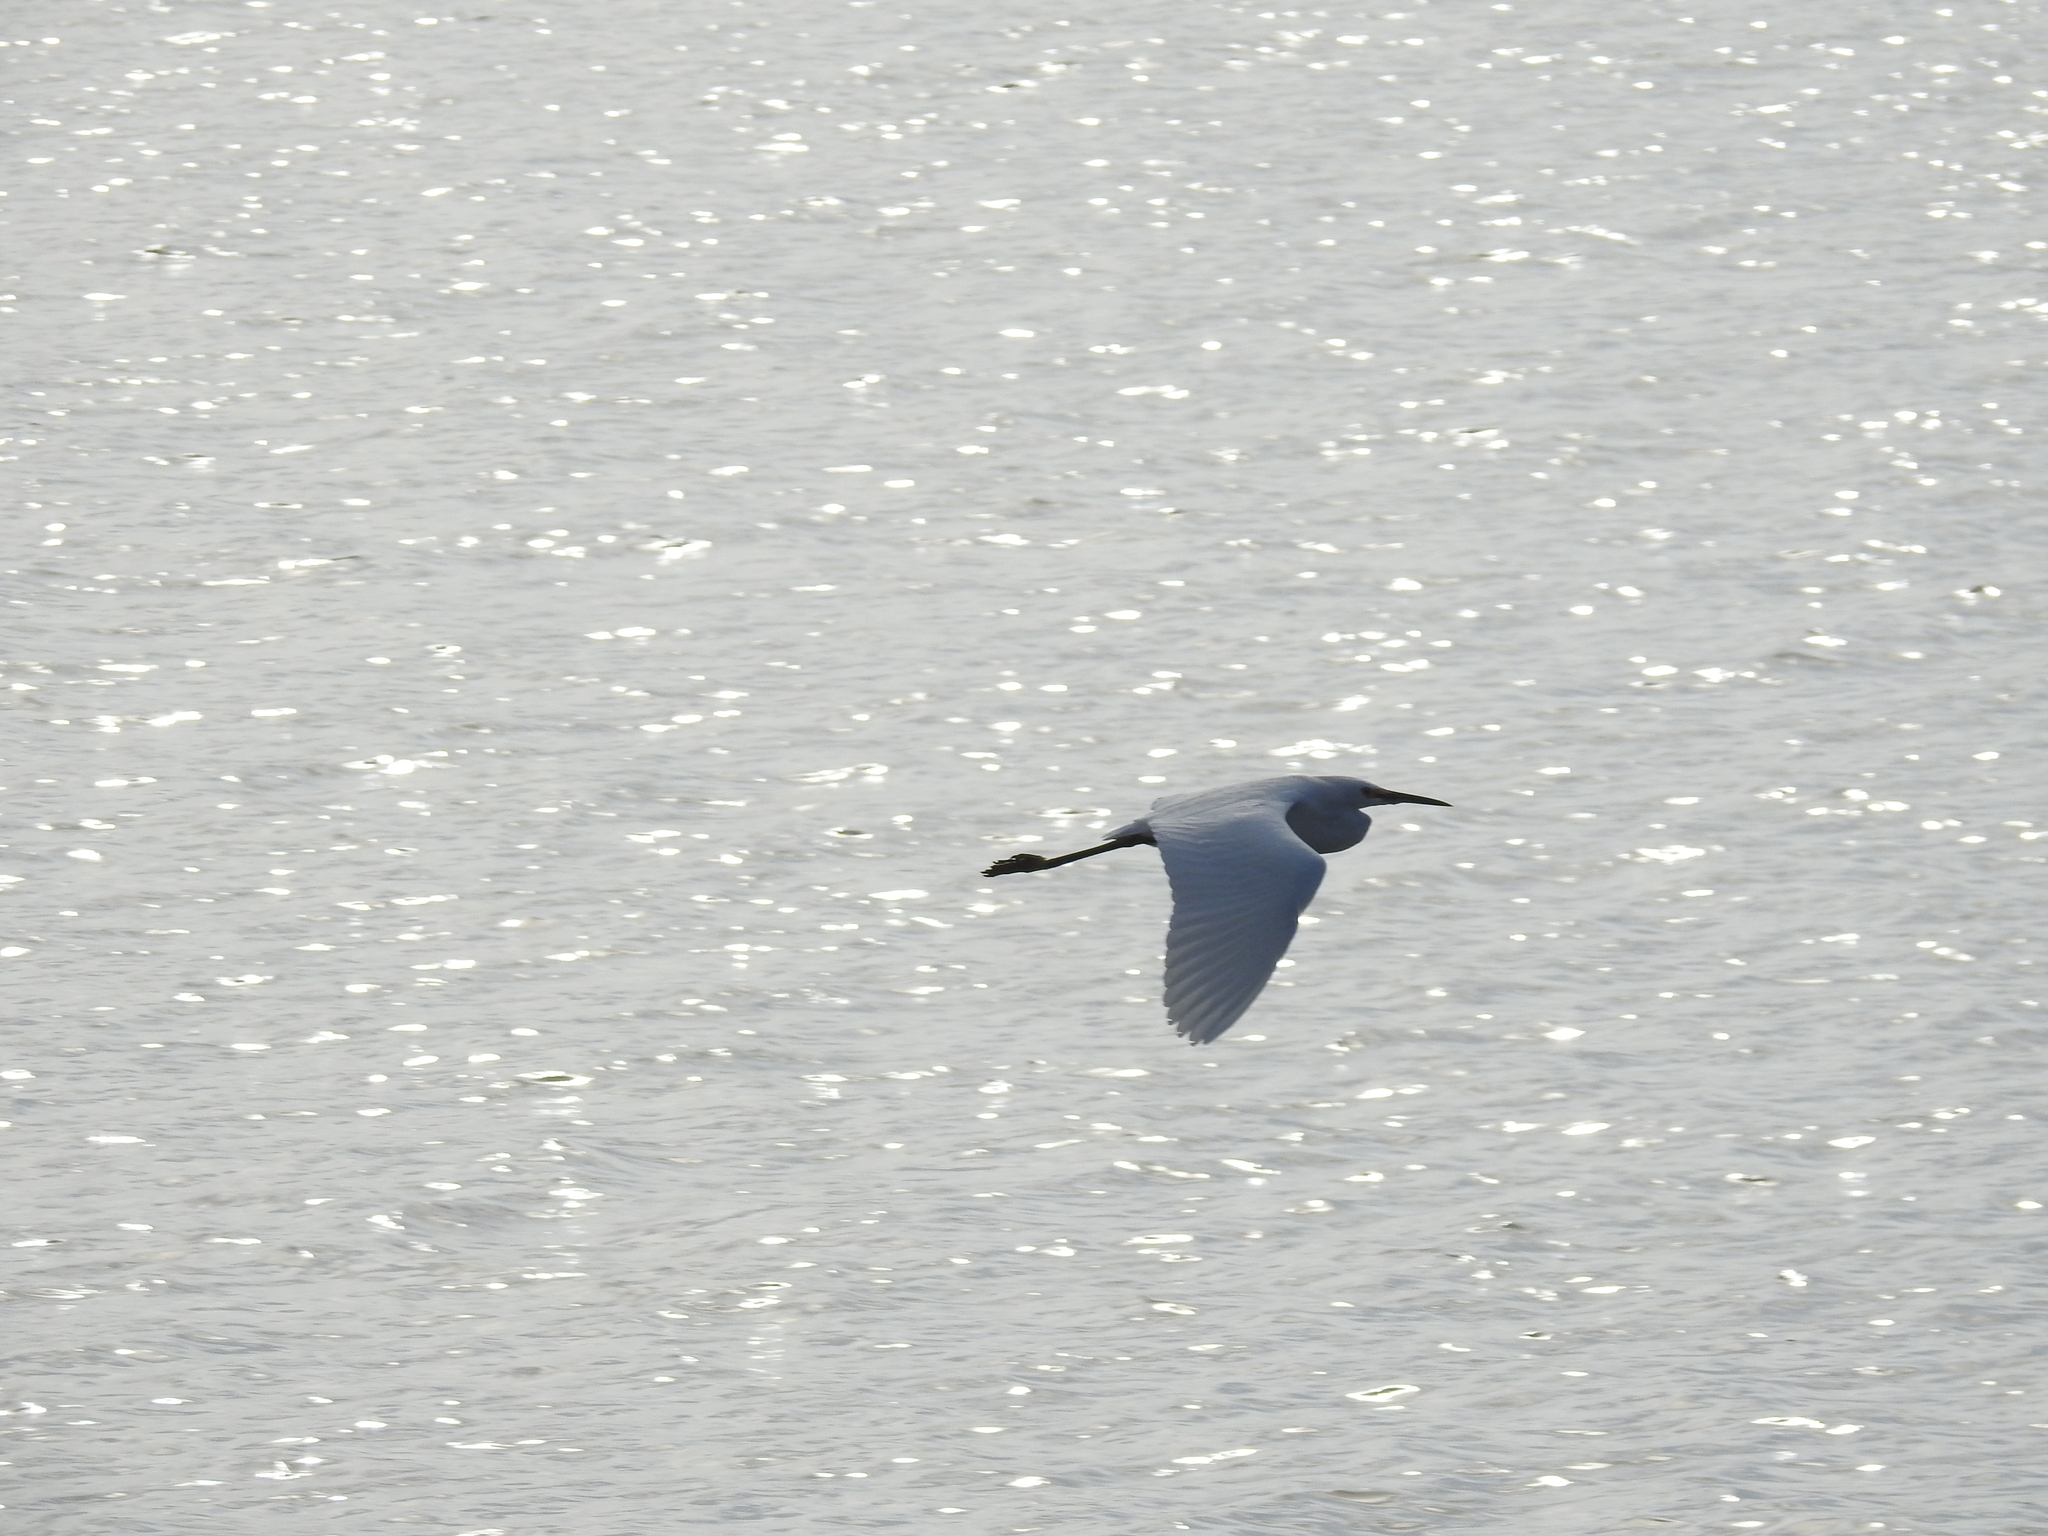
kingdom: Animalia
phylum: Chordata
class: Aves
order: Pelecaniformes
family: Ardeidae
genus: Egretta
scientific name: Egretta thula
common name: Snowy egret
